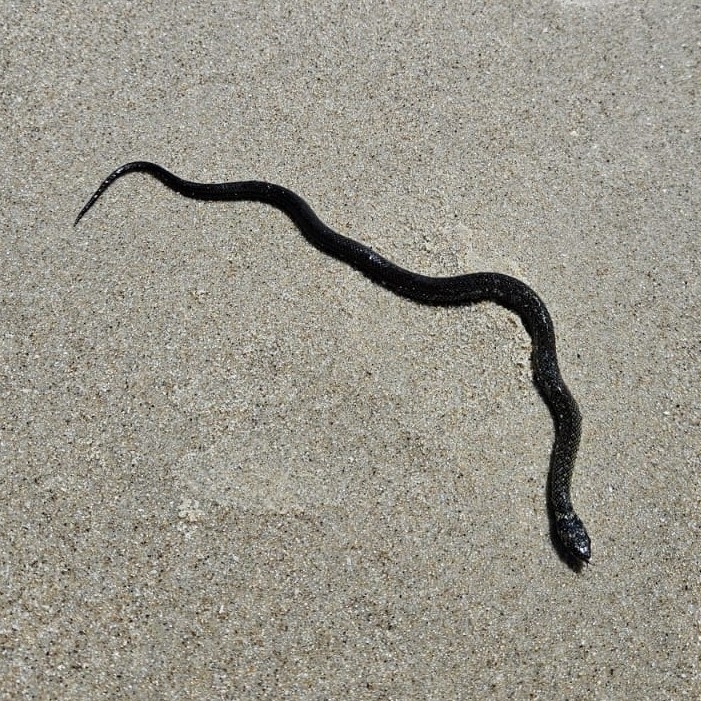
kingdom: Animalia
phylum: Chordata
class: Squamata
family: Colubridae
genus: Erythrolamprus
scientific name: Erythrolamprus miliaris
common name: Military ground snake
